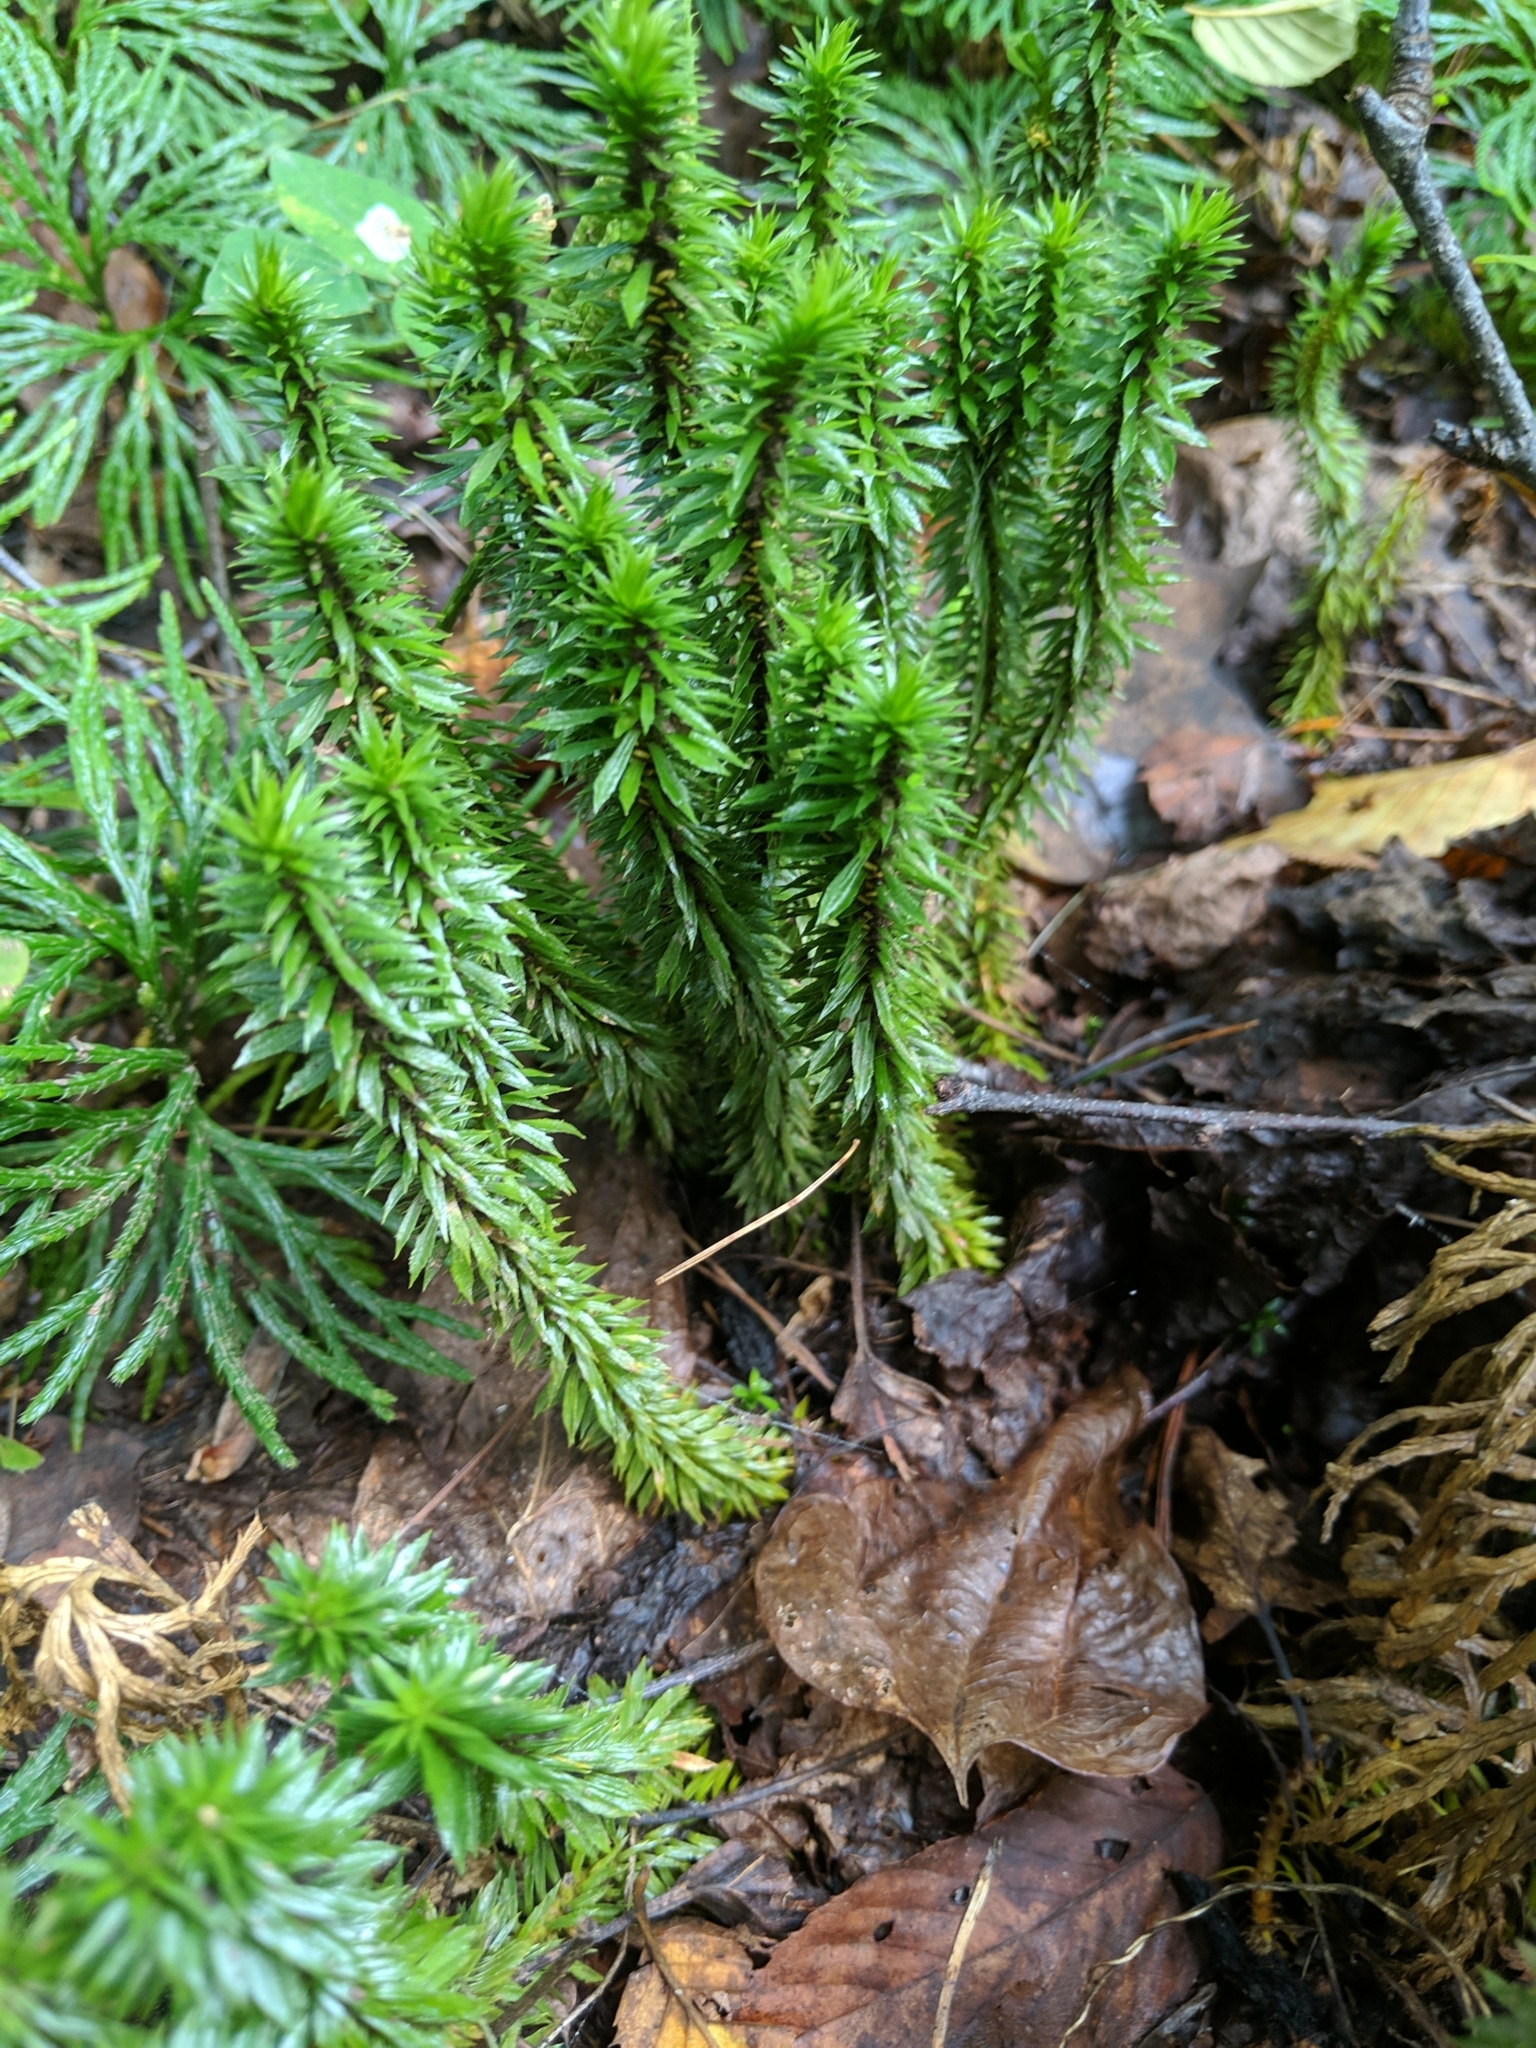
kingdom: Plantae
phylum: Tracheophyta
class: Lycopodiopsida
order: Lycopodiales
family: Lycopodiaceae
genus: Huperzia
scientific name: Huperzia lucidula
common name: Shining clubmoss
